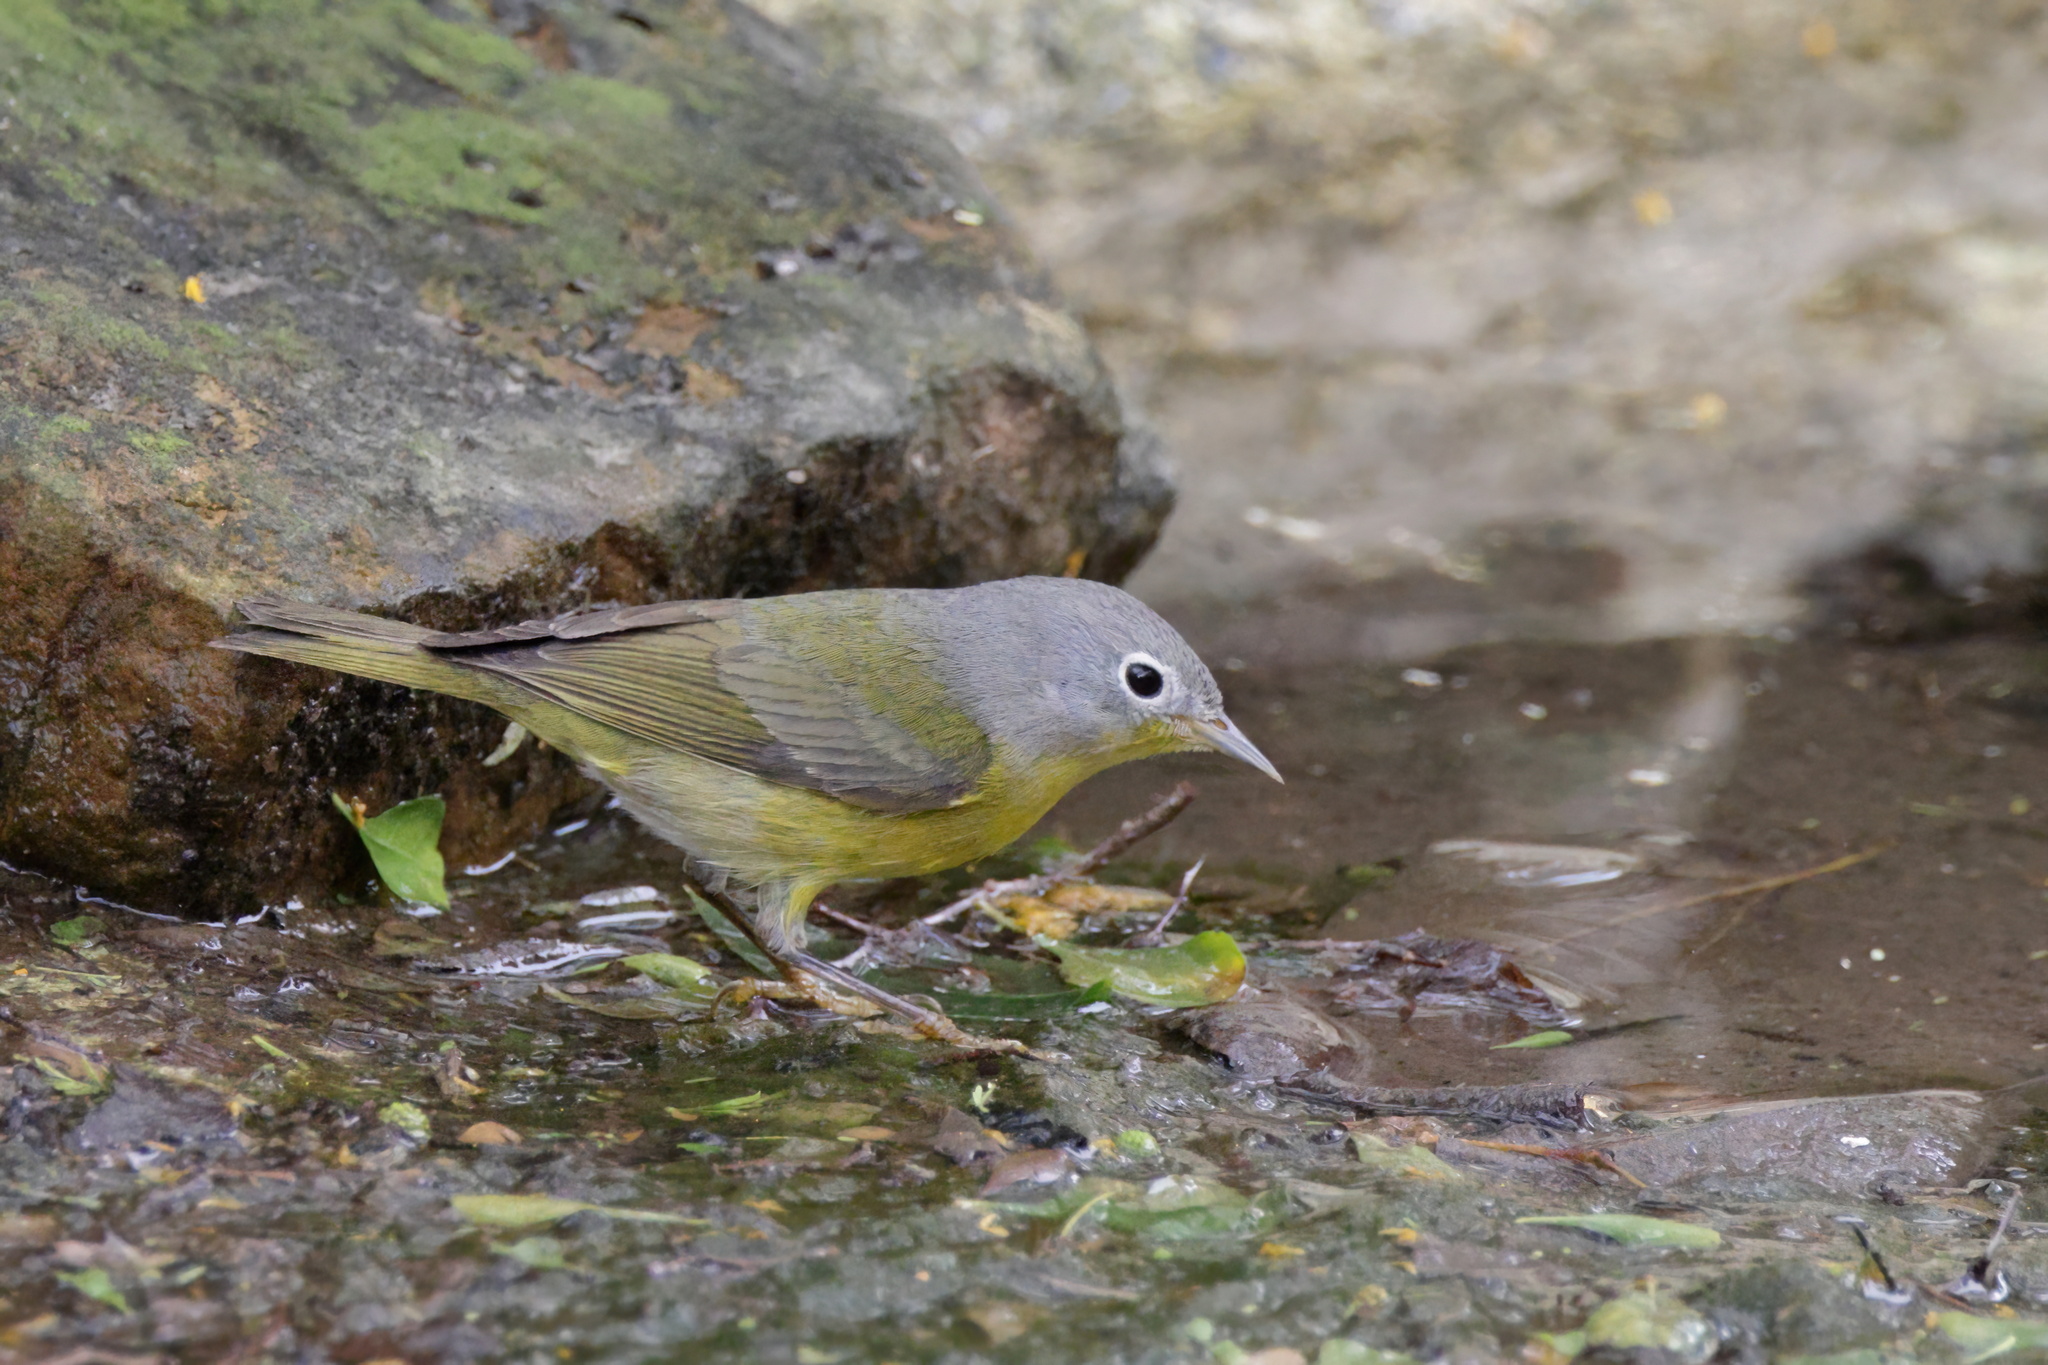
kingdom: Animalia
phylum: Chordata
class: Aves
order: Passeriformes
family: Parulidae
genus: Leiothlypis
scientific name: Leiothlypis ruficapilla
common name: Nashville warbler
